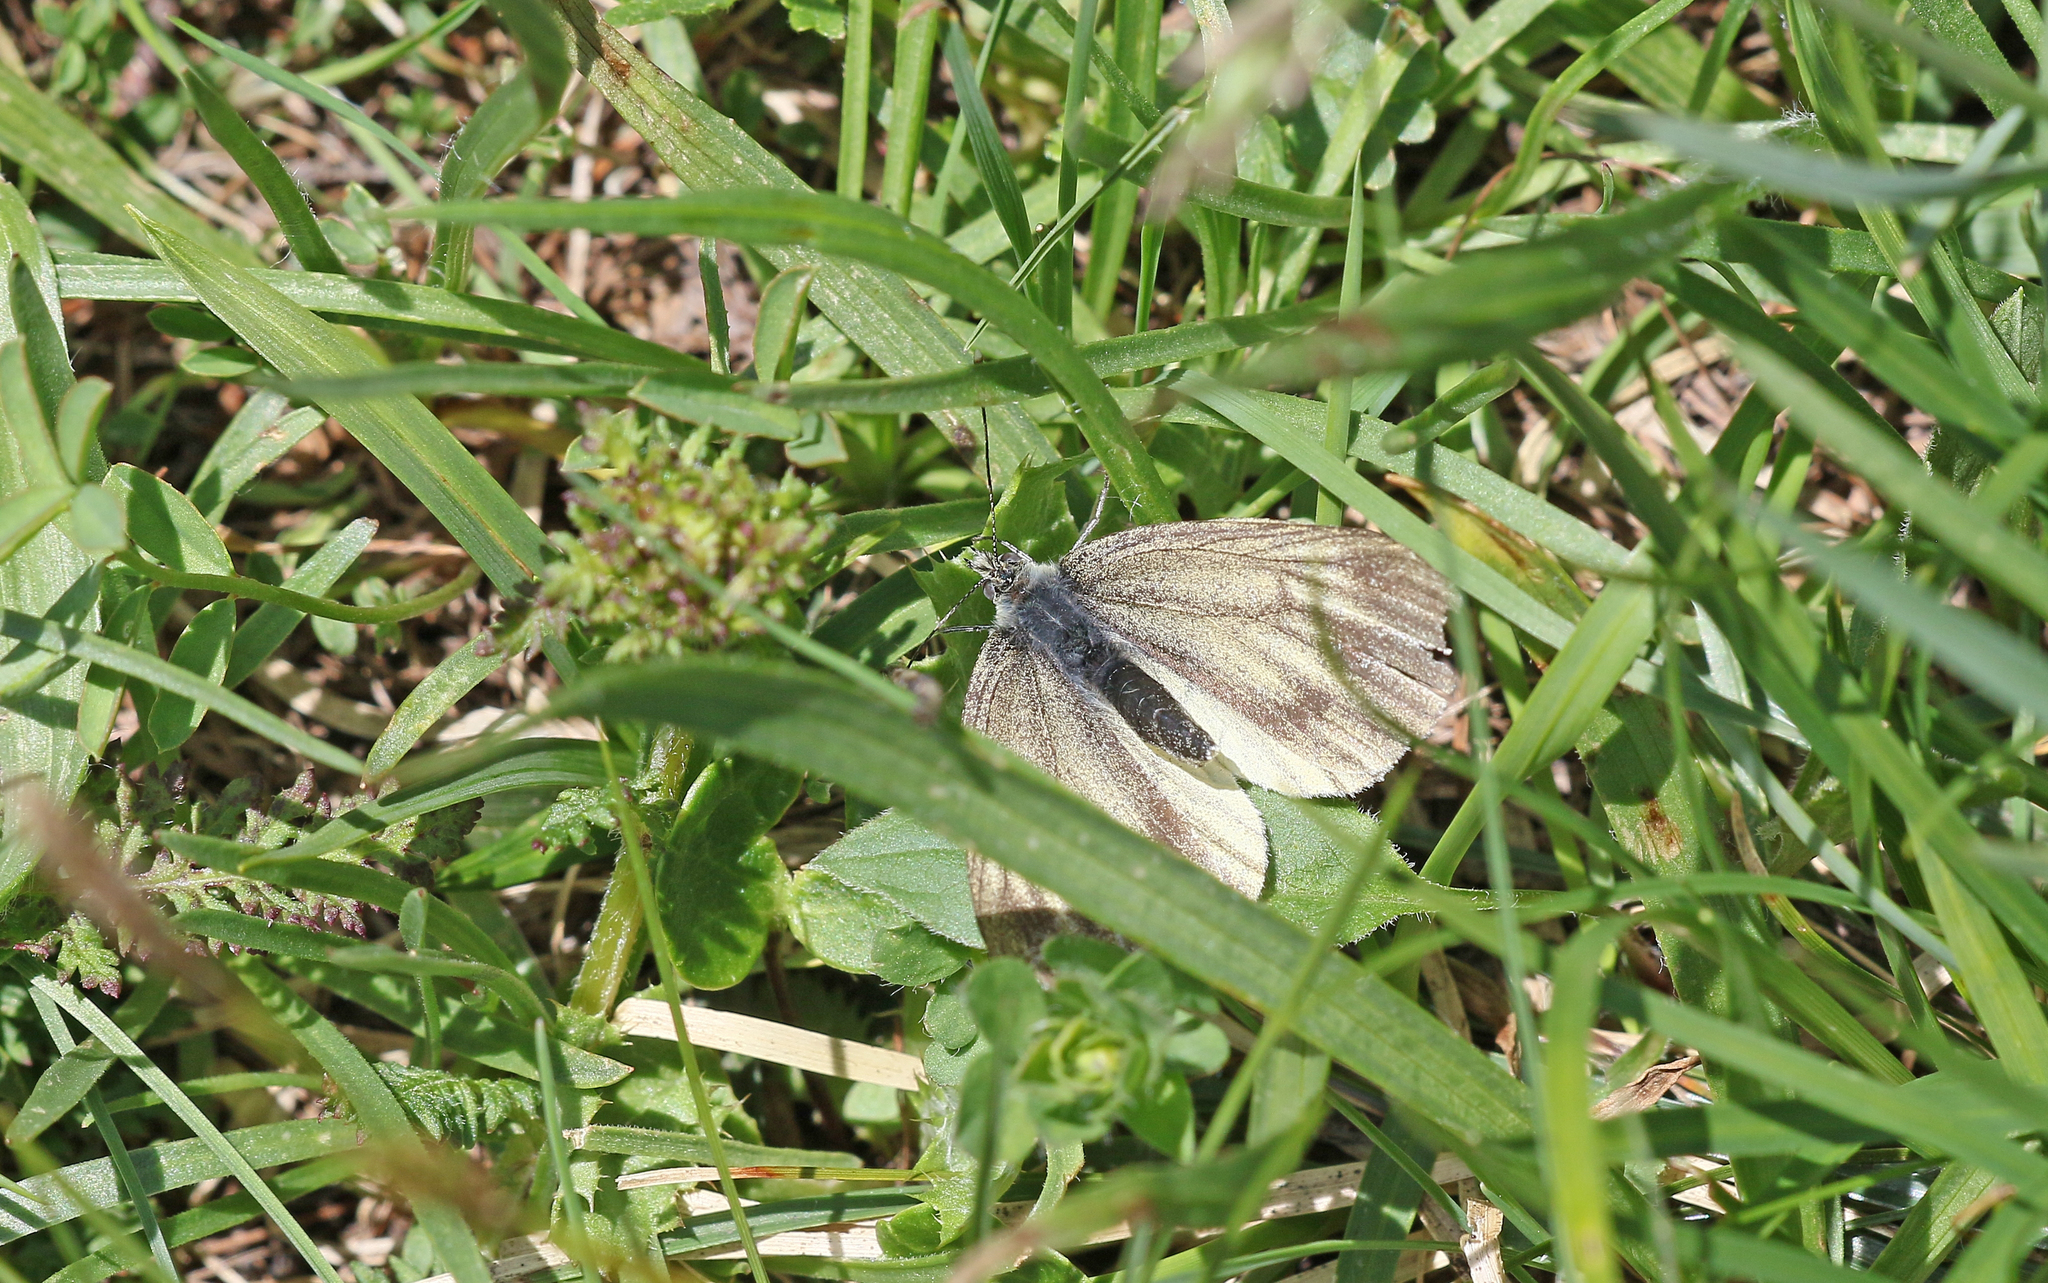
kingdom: Animalia
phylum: Arthropoda
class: Insecta
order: Lepidoptera
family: Pieridae
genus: Pieris
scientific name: Pieris bryoniae
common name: Mountain green-veined white
